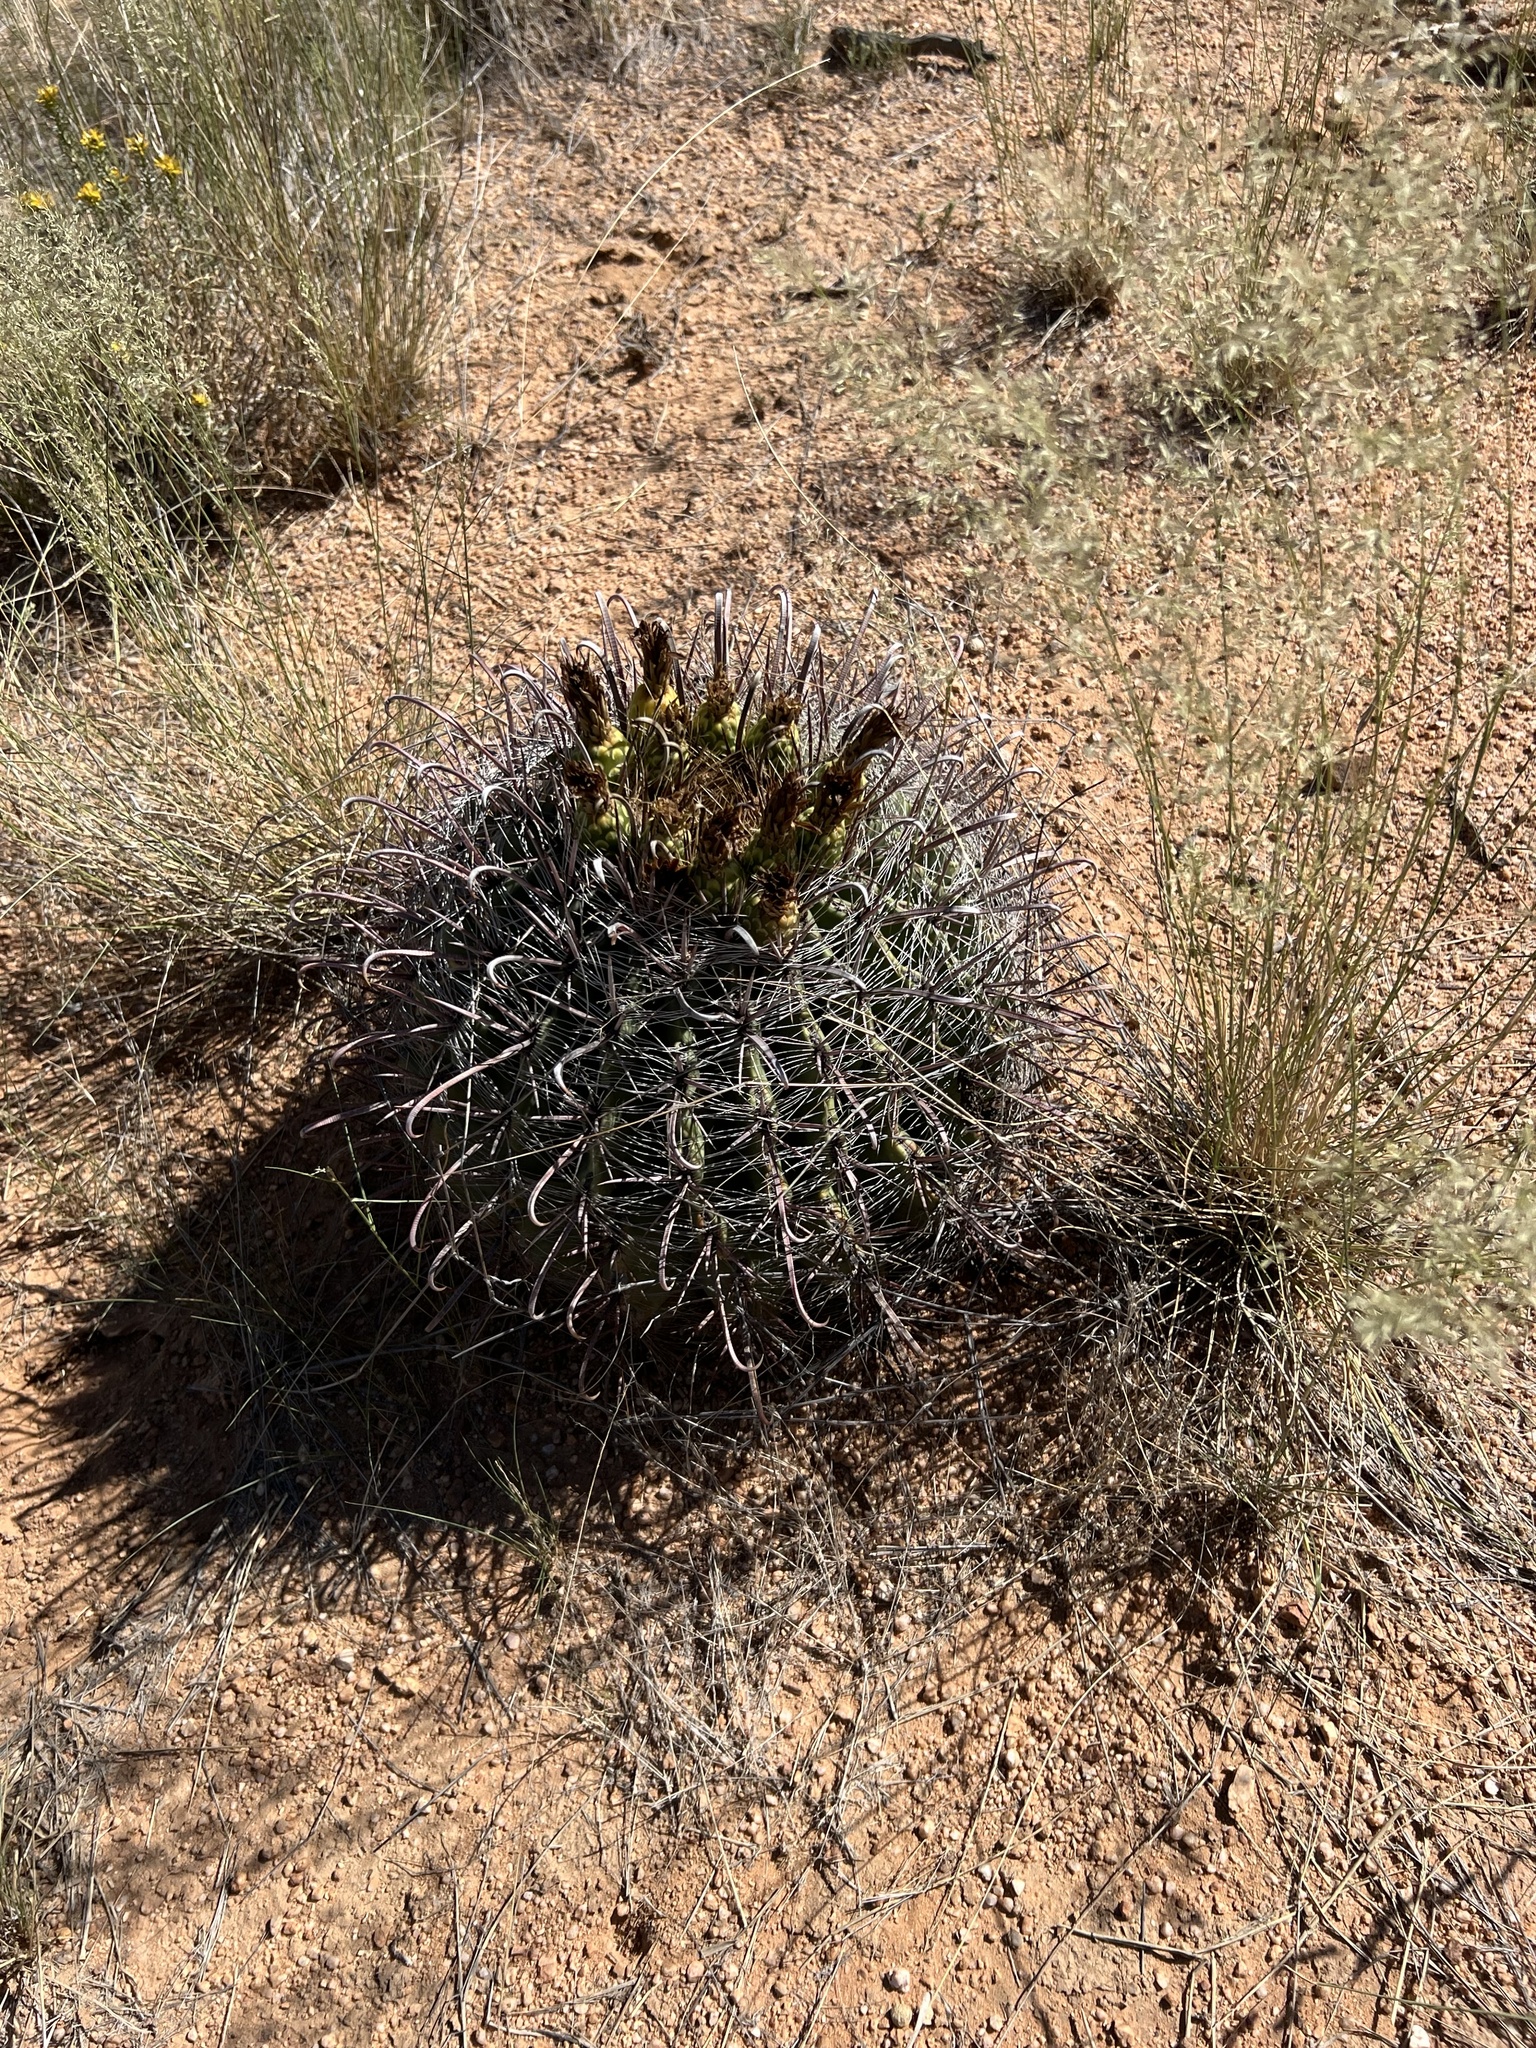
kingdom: Plantae
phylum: Tracheophyta
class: Magnoliopsida
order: Caryophyllales
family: Cactaceae
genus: Ferocactus
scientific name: Ferocactus wislizeni
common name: Candy barrel cactus
